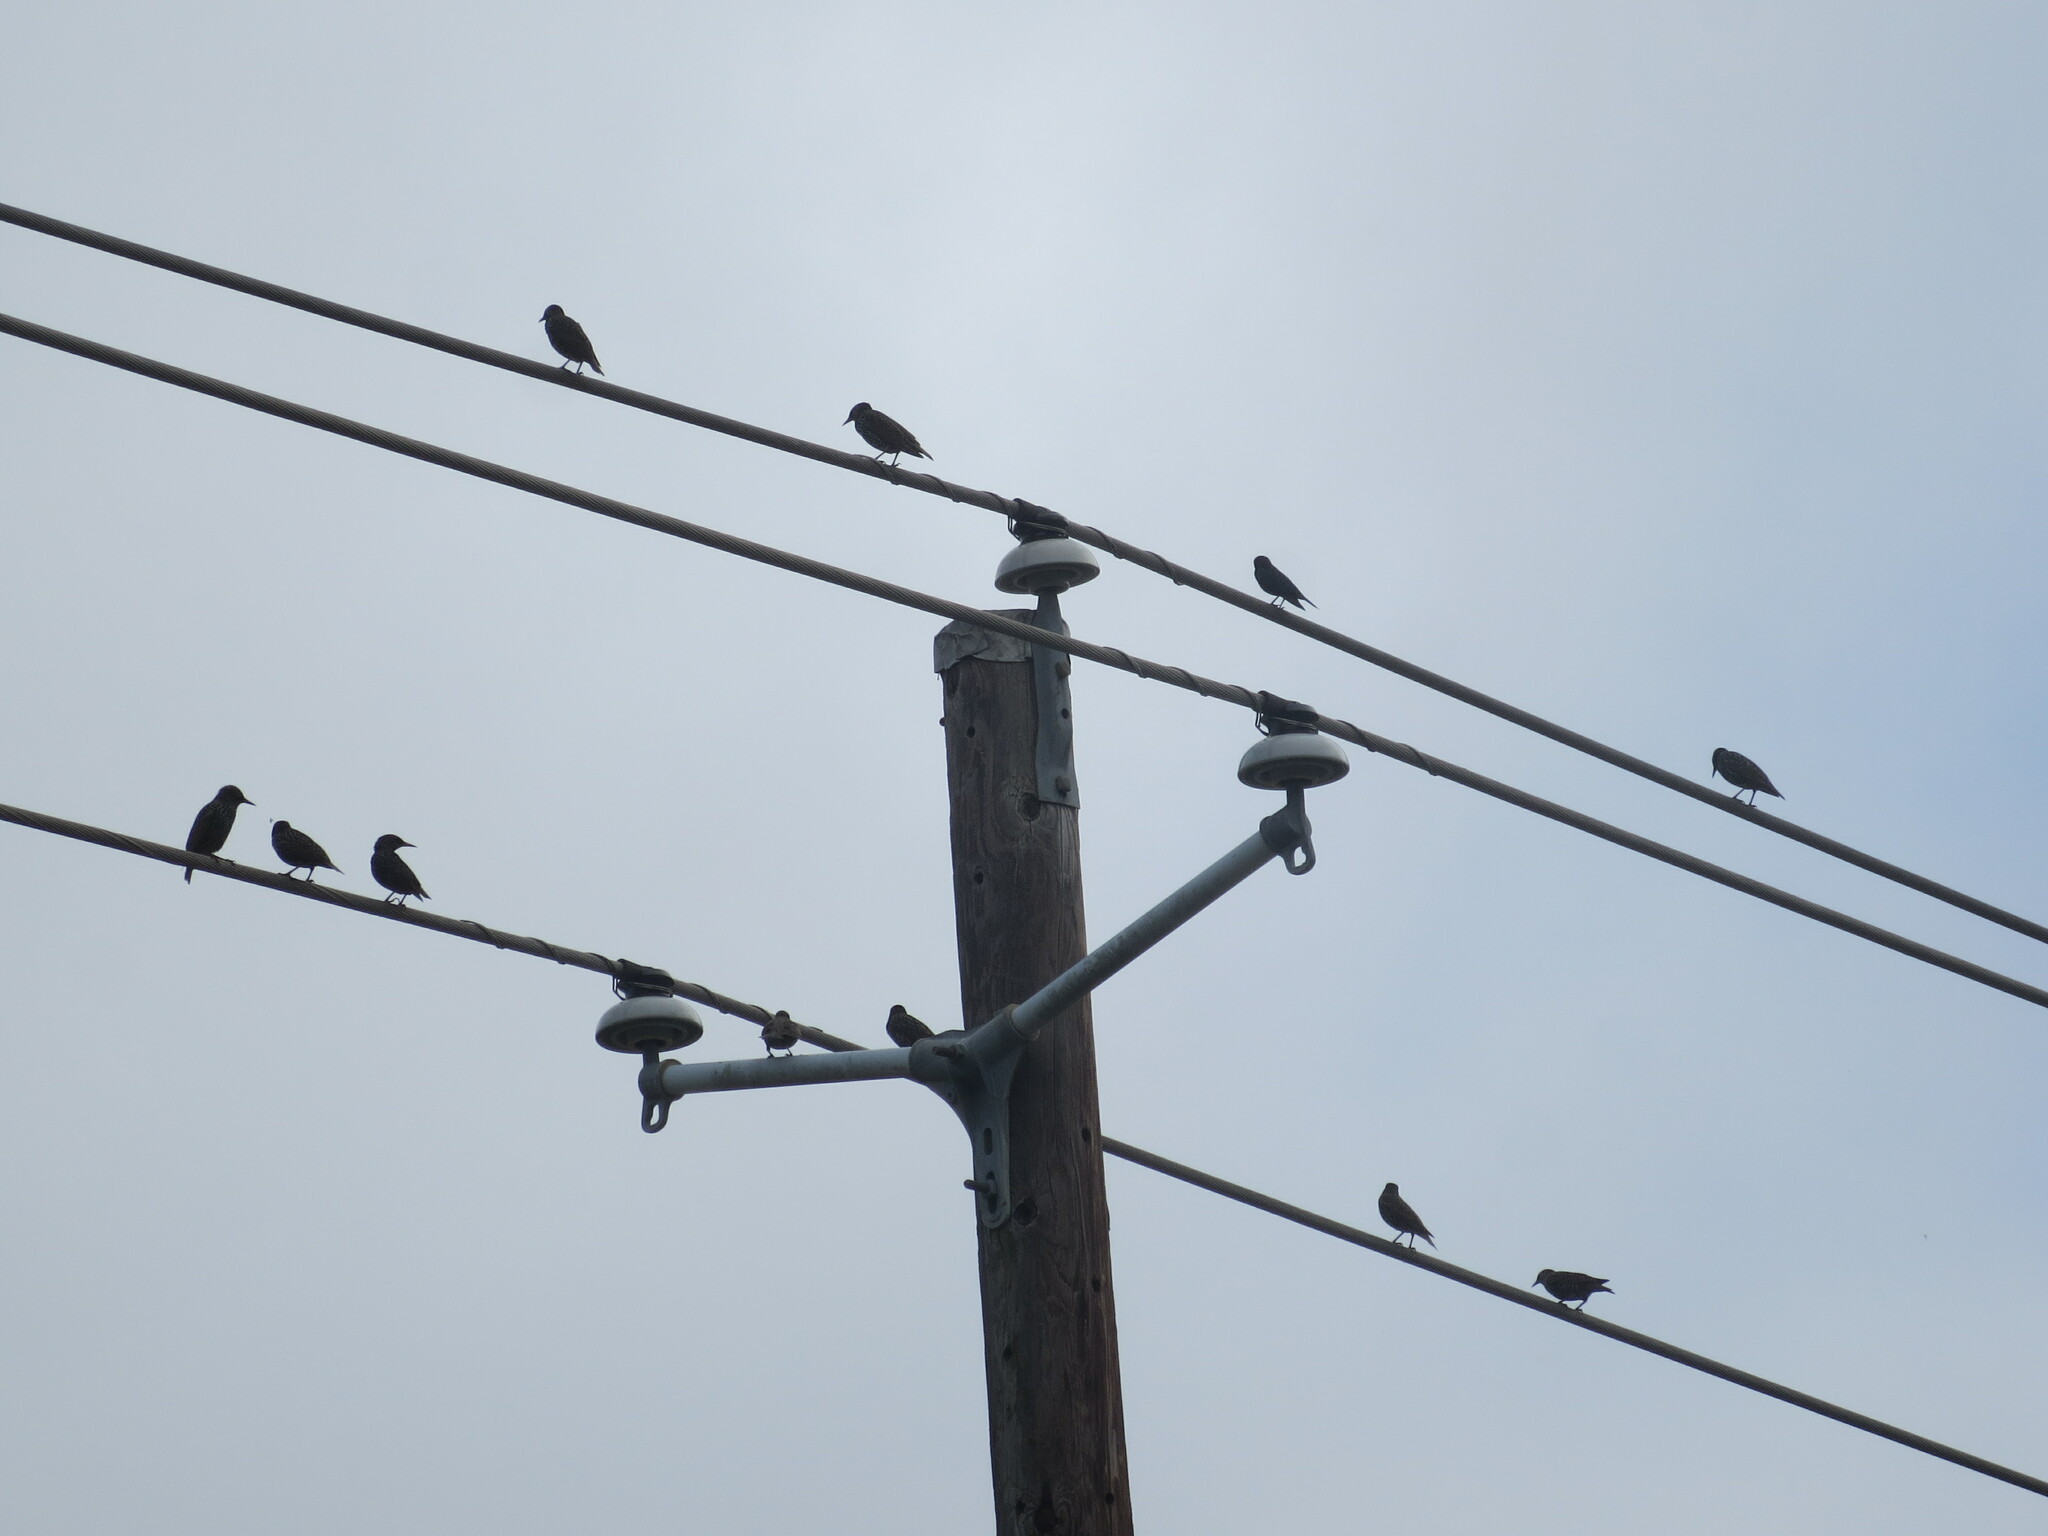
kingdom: Animalia
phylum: Chordata
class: Aves
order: Passeriformes
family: Sturnidae
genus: Sturnus
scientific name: Sturnus vulgaris
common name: Common starling
